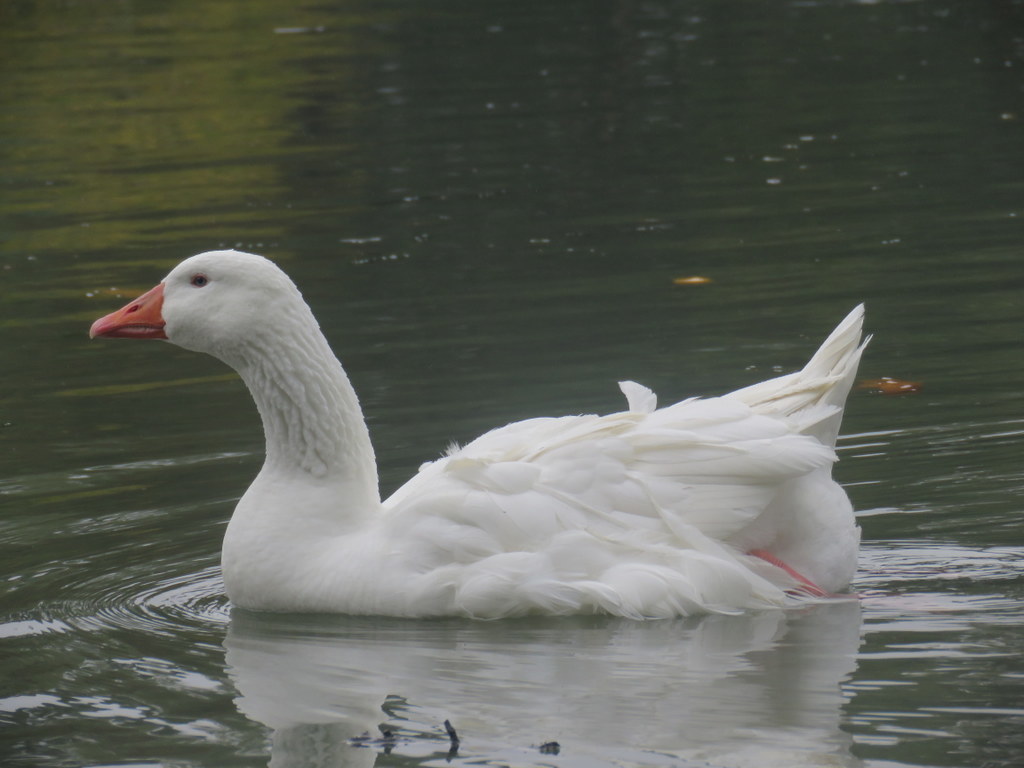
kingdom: Animalia
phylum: Chordata
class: Aves
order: Anseriformes
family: Anatidae
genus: Anser
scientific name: Anser anser
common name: Greylag goose
